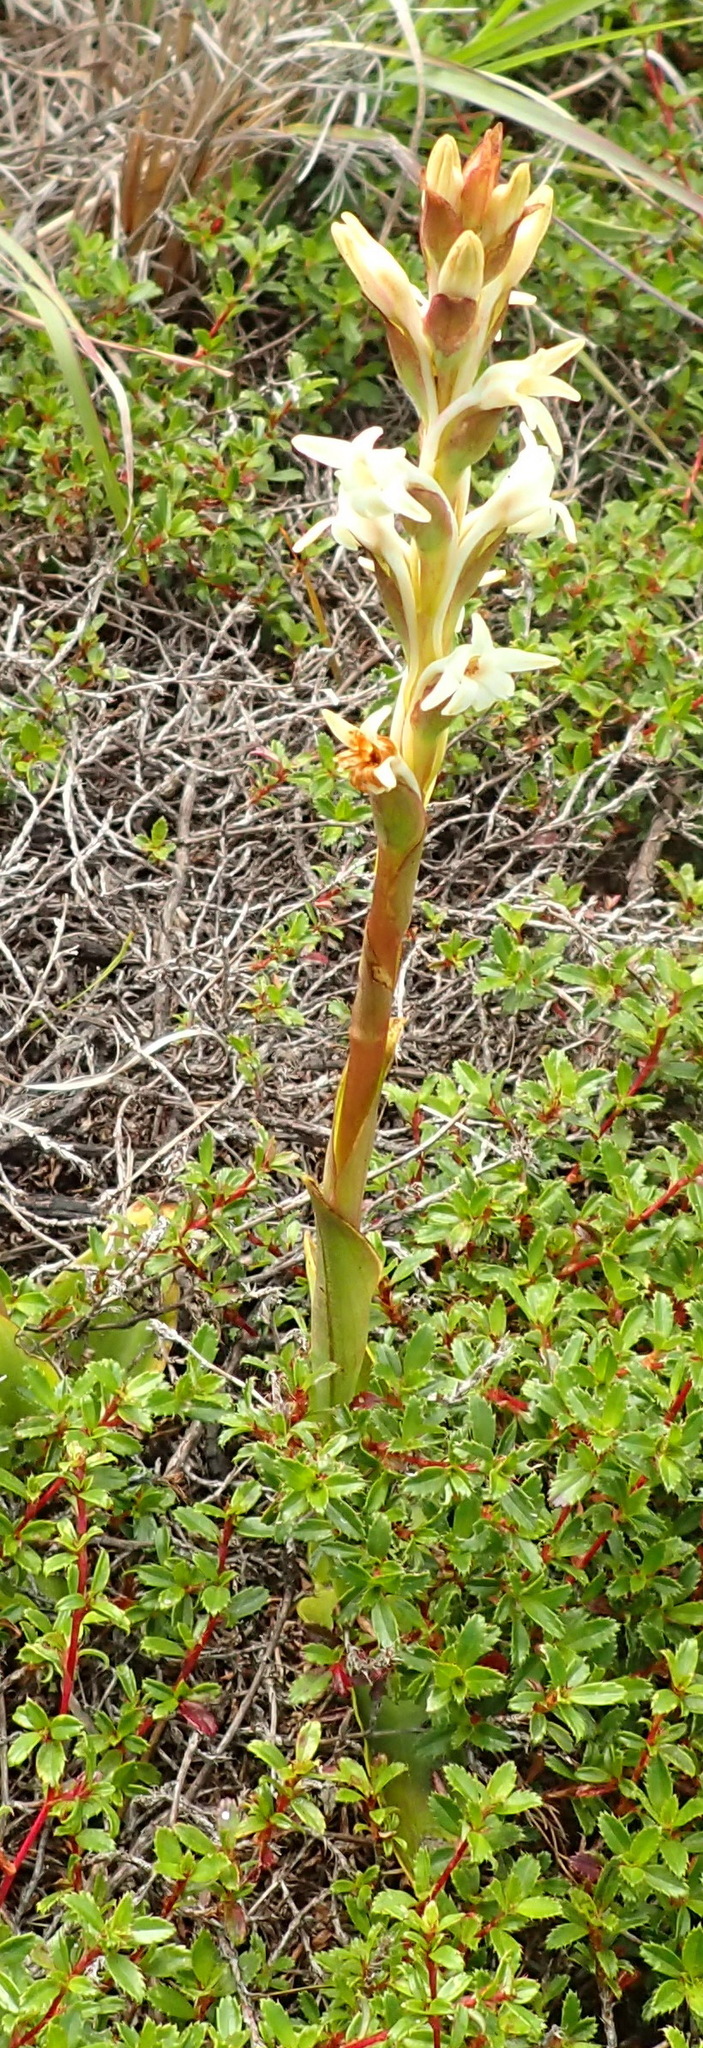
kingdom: Plantae
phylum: Tracheophyta
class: Liliopsida
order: Asparagales
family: Orchidaceae
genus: Satyrium
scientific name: Satyrium stenopetalum
